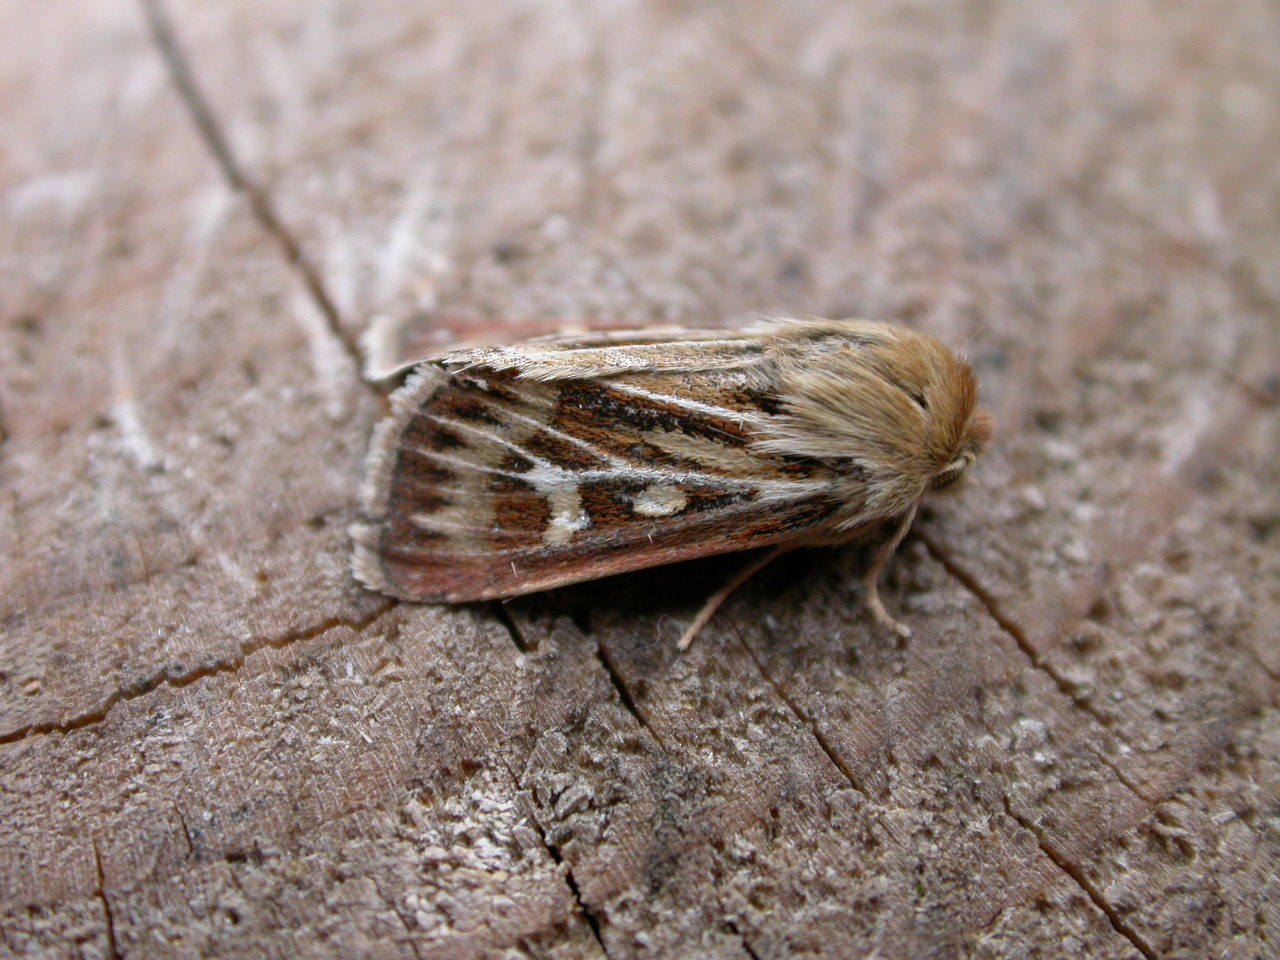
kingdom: Animalia
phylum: Arthropoda
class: Insecta
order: Lepidoptera
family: Noctuidae
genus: Cerapteryx
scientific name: Cerapteryx graminis
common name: Antler moth
